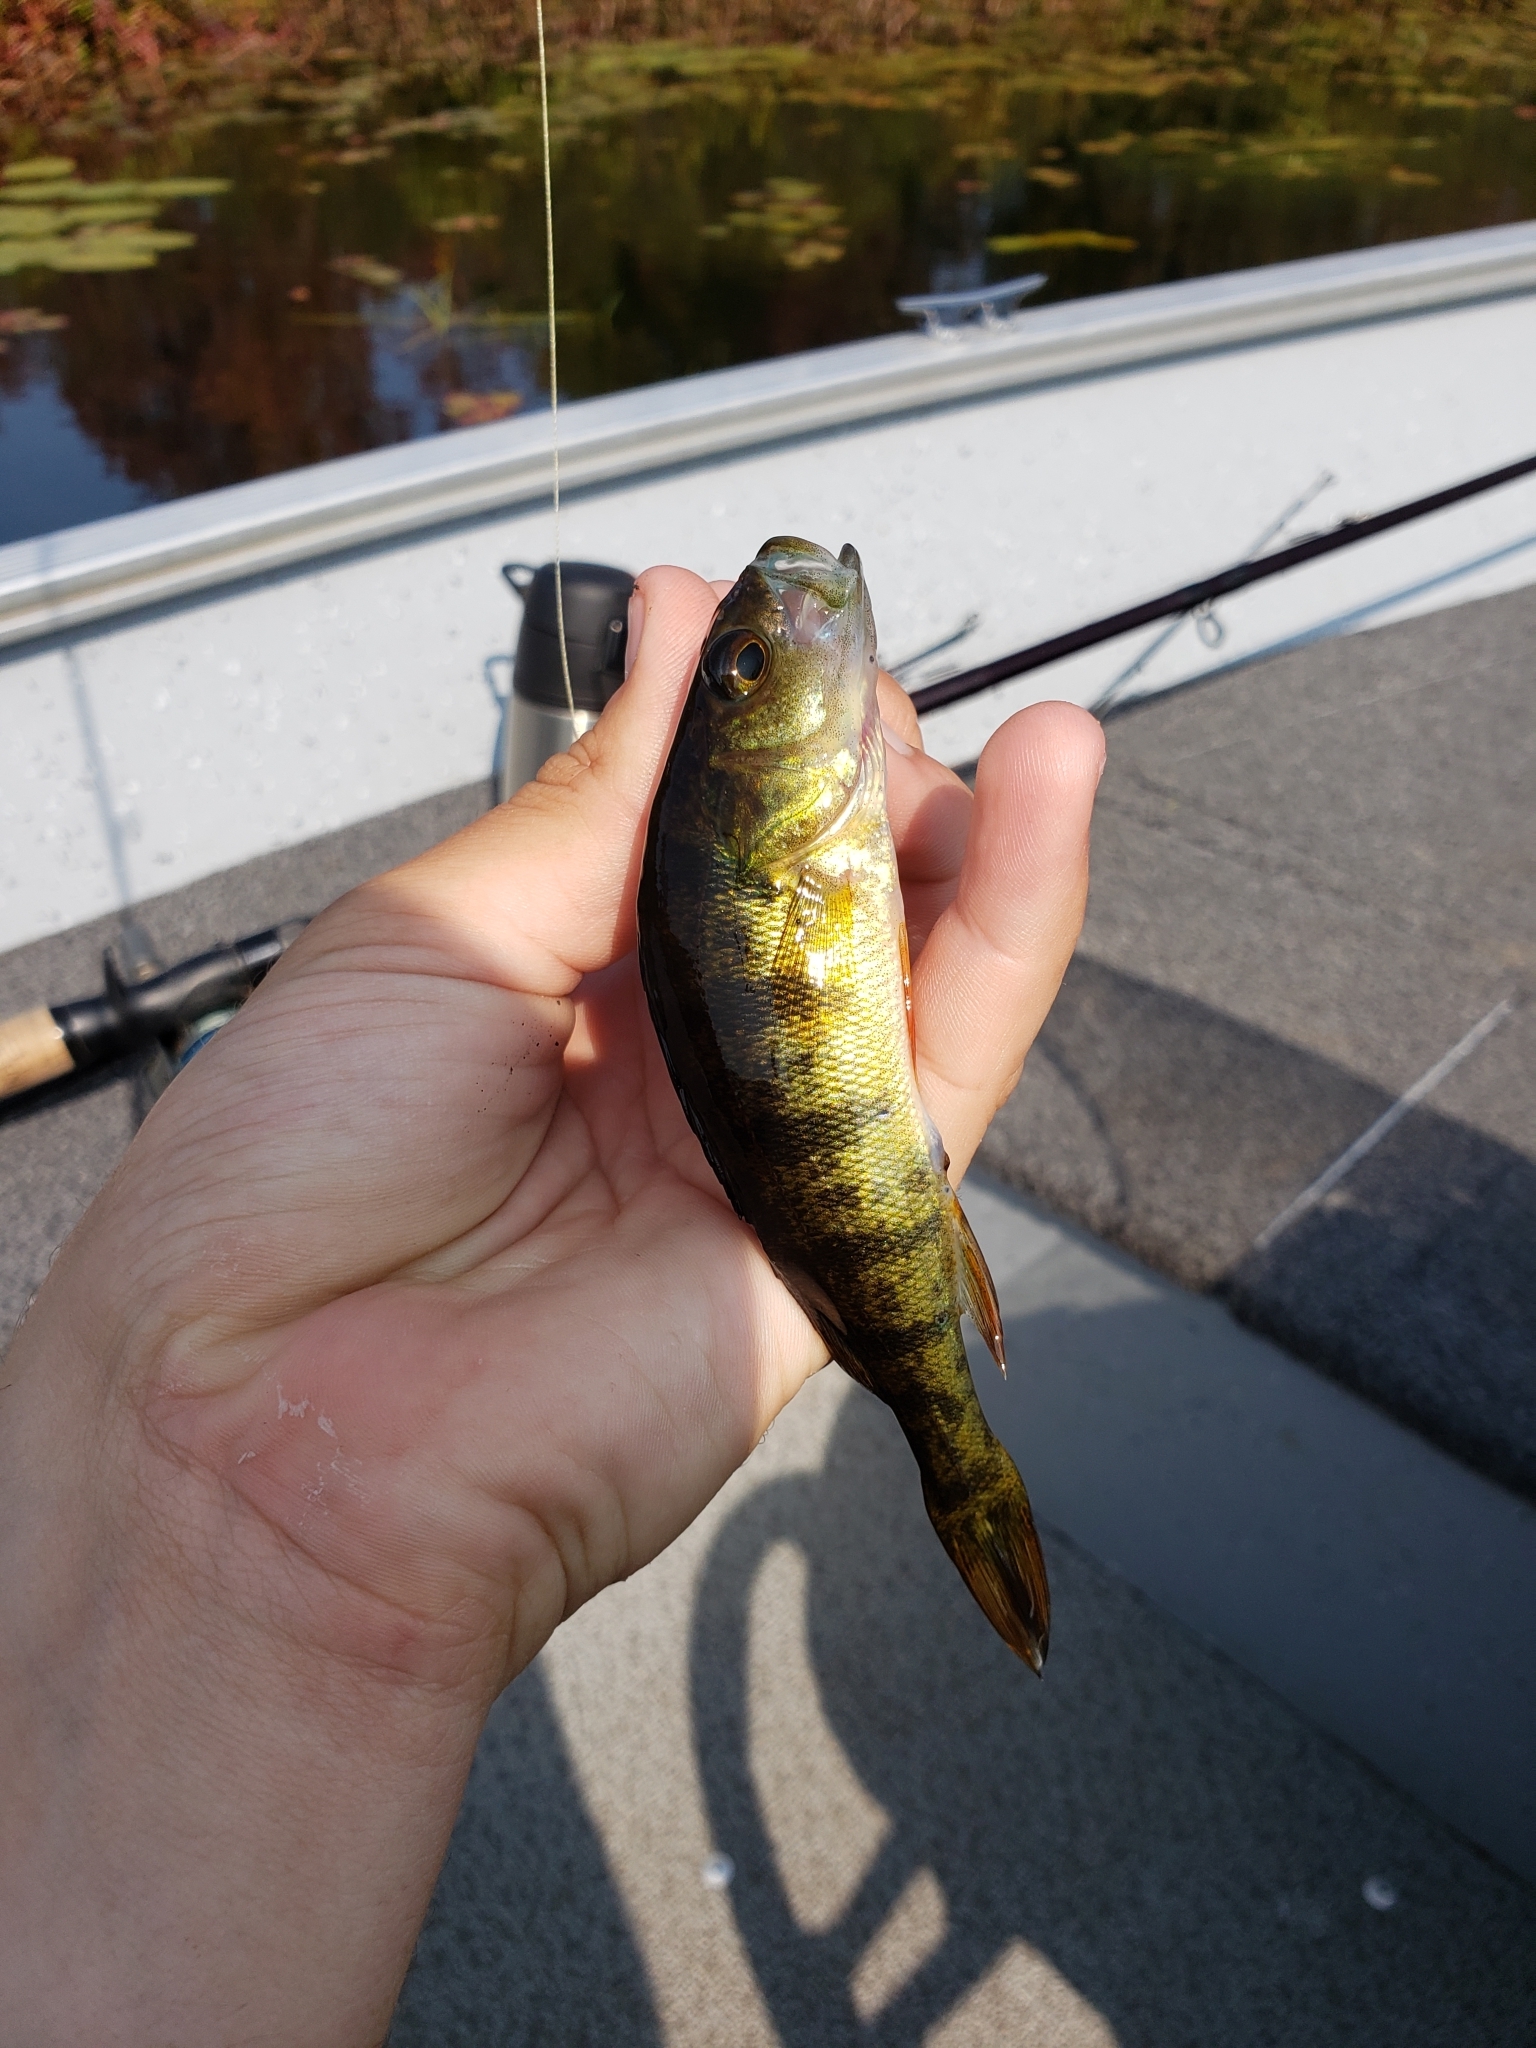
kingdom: Animalia
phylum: Chordata
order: Perciformes
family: Percidae
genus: Perca
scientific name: Perca flavescens
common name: Yellow perch
